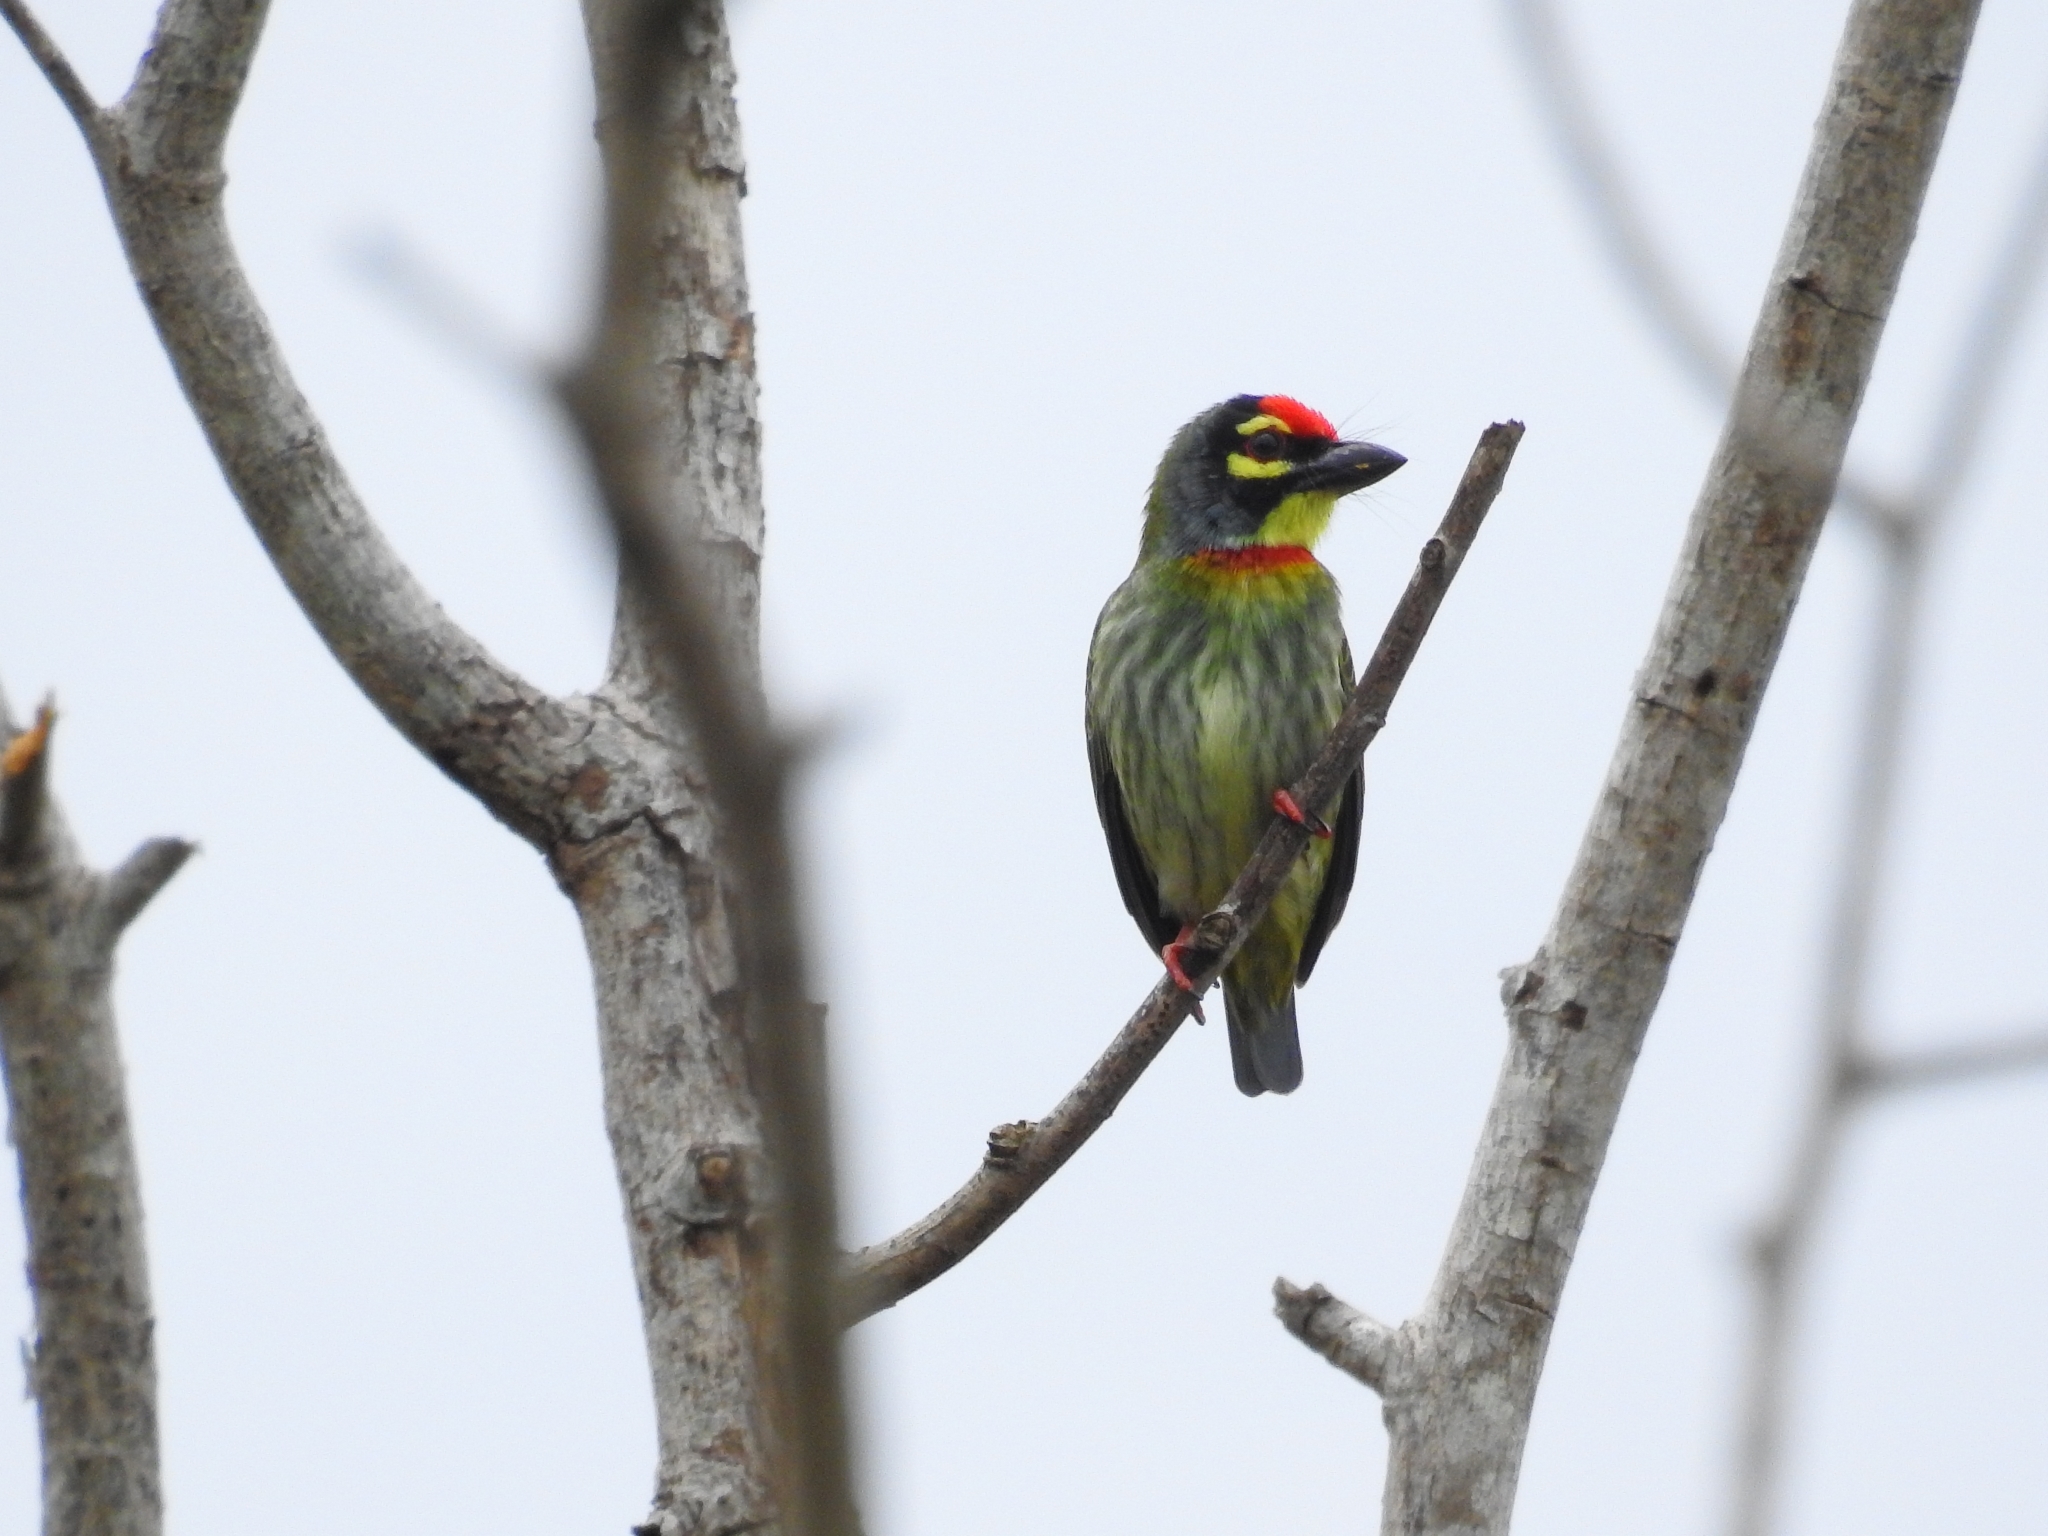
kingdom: Animalia
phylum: Chordata
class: Aves
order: Piciformes
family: Megalaimidae
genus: Psilopogon
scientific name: Psilopogon haemacephalus
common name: Coppersmith barbet
